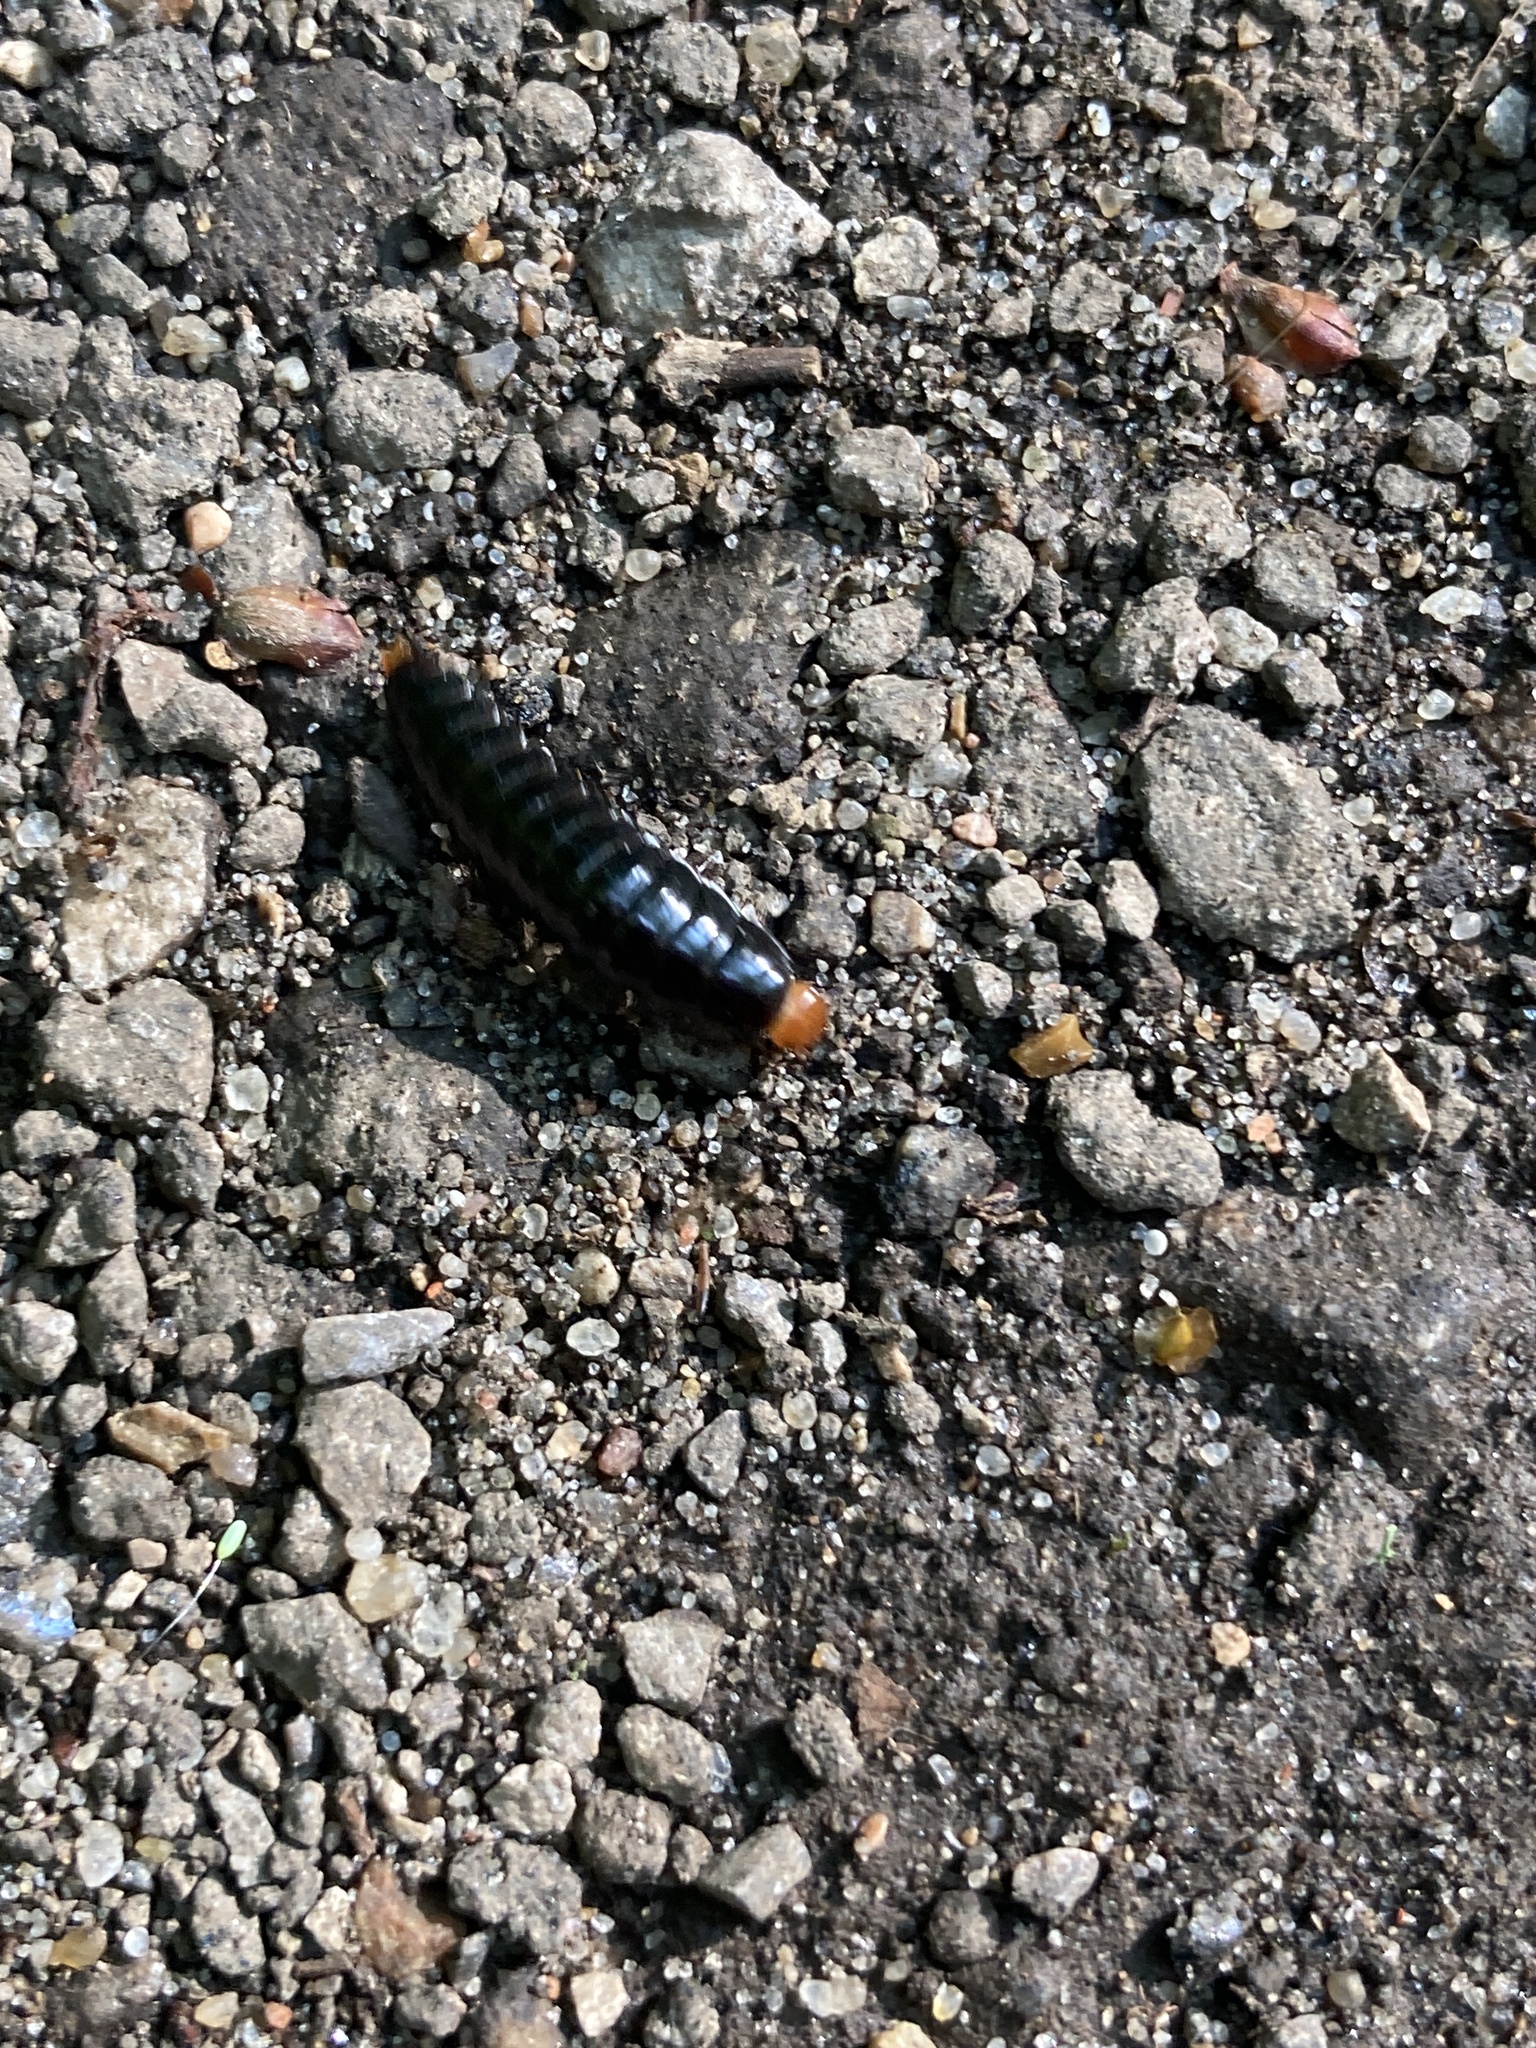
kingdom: Animalia
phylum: Arthropoda
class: Insecta
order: Coleoptera
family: Staphylinidae
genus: Dendroxena
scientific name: Dendroxena quadrimaculata
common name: Carrion beetle
